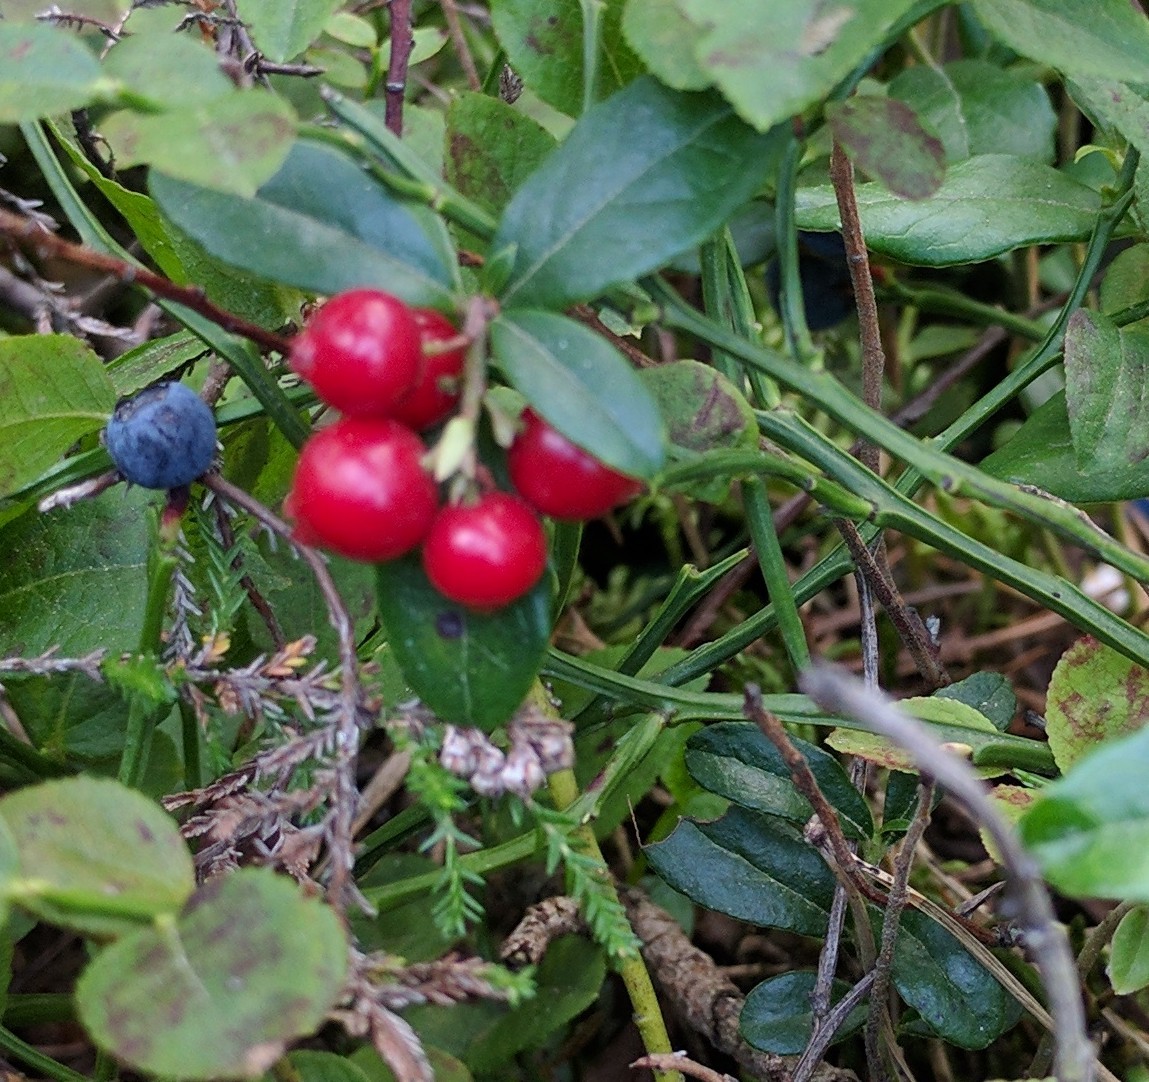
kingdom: Plantae
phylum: Tracheophyta
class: Magnoliopsida
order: Ericales
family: Ericaceae
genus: Vaccinium
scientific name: Vaccinium vitis-idaea
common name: Cowberry
